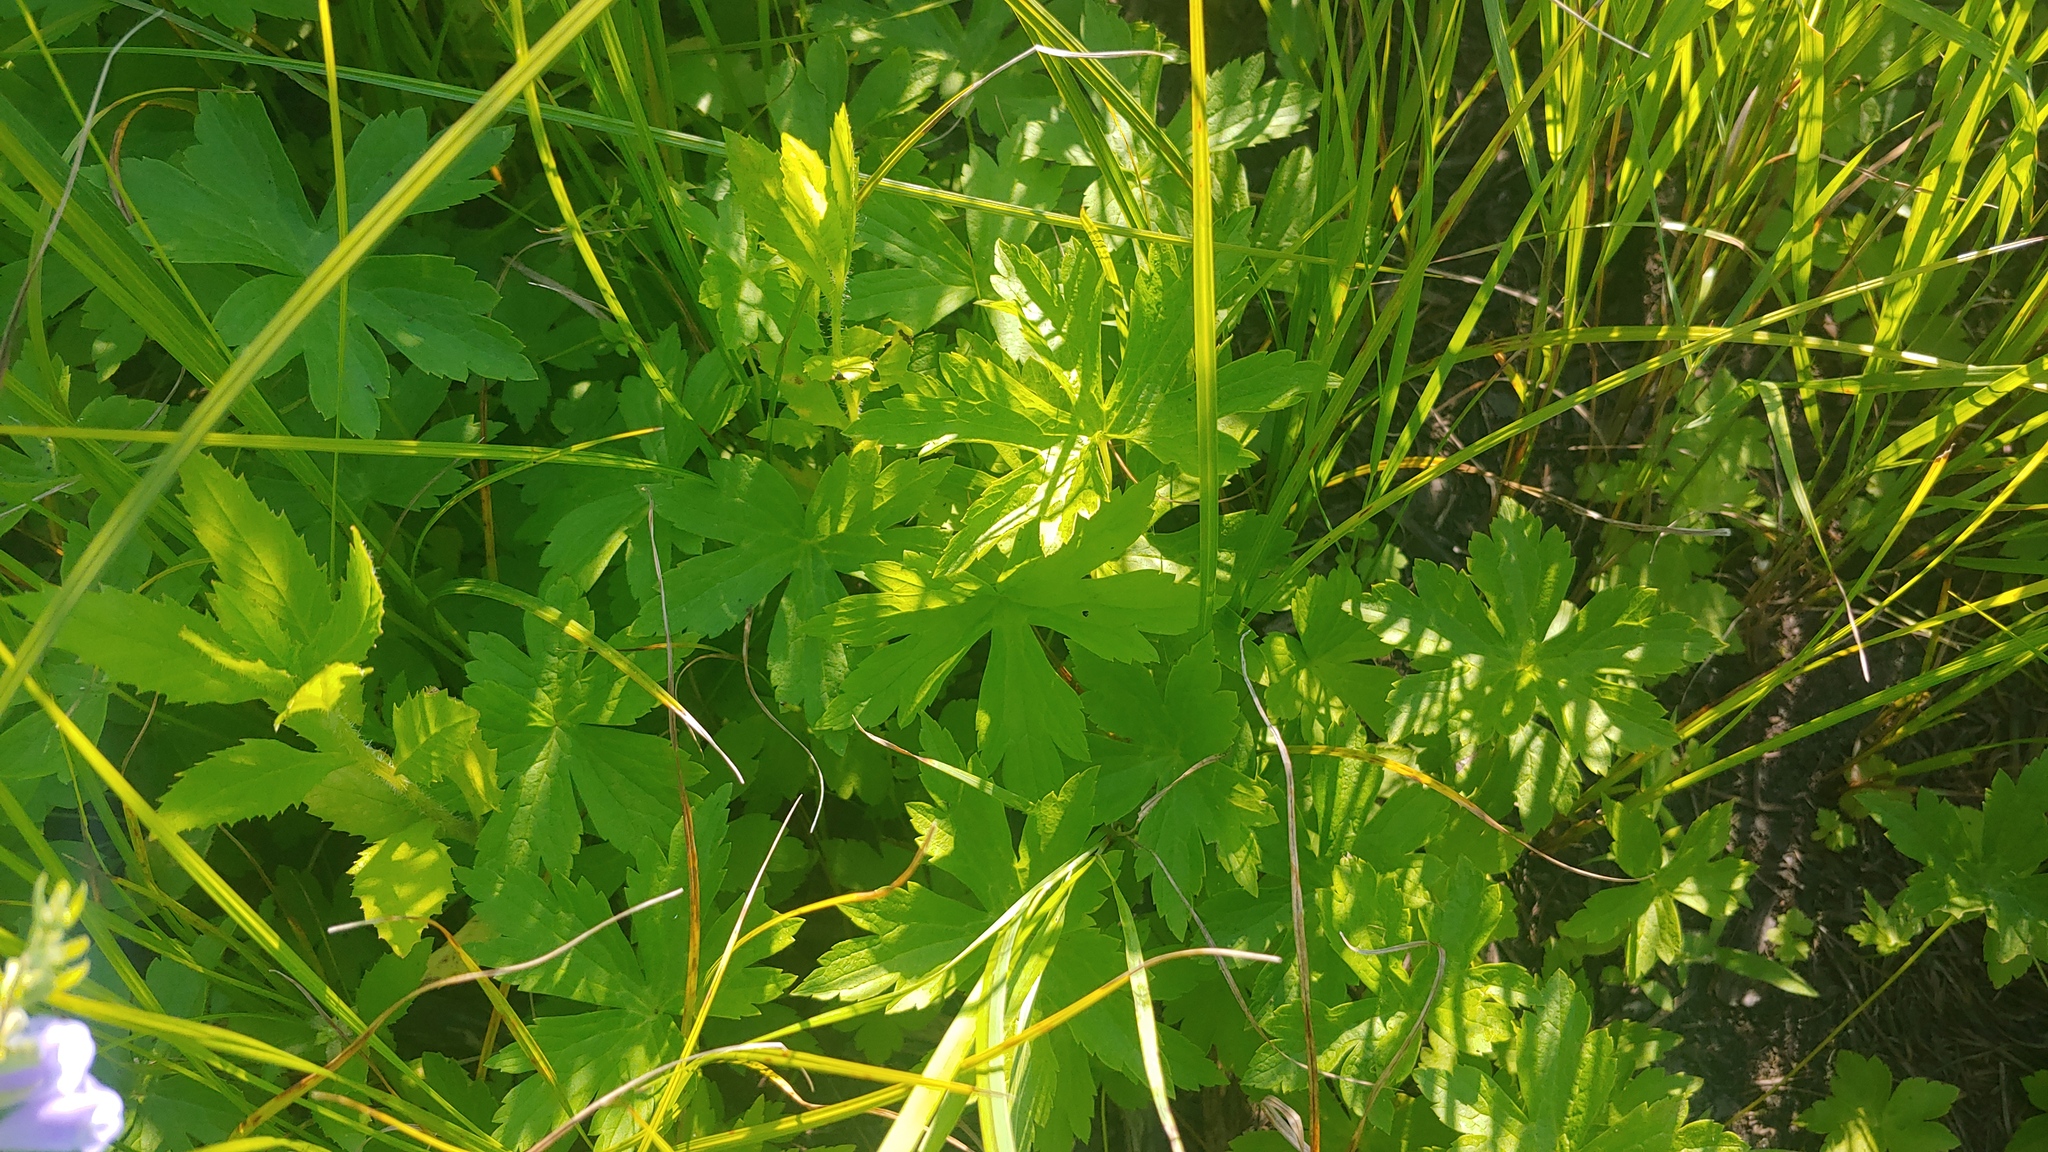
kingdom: Plantae
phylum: Tracheophyta
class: Magnoliopsida
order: Ranunculales
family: Ranunculaceae
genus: Anemonastrum
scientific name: Anemonastrum canadense
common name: Canada anemone
